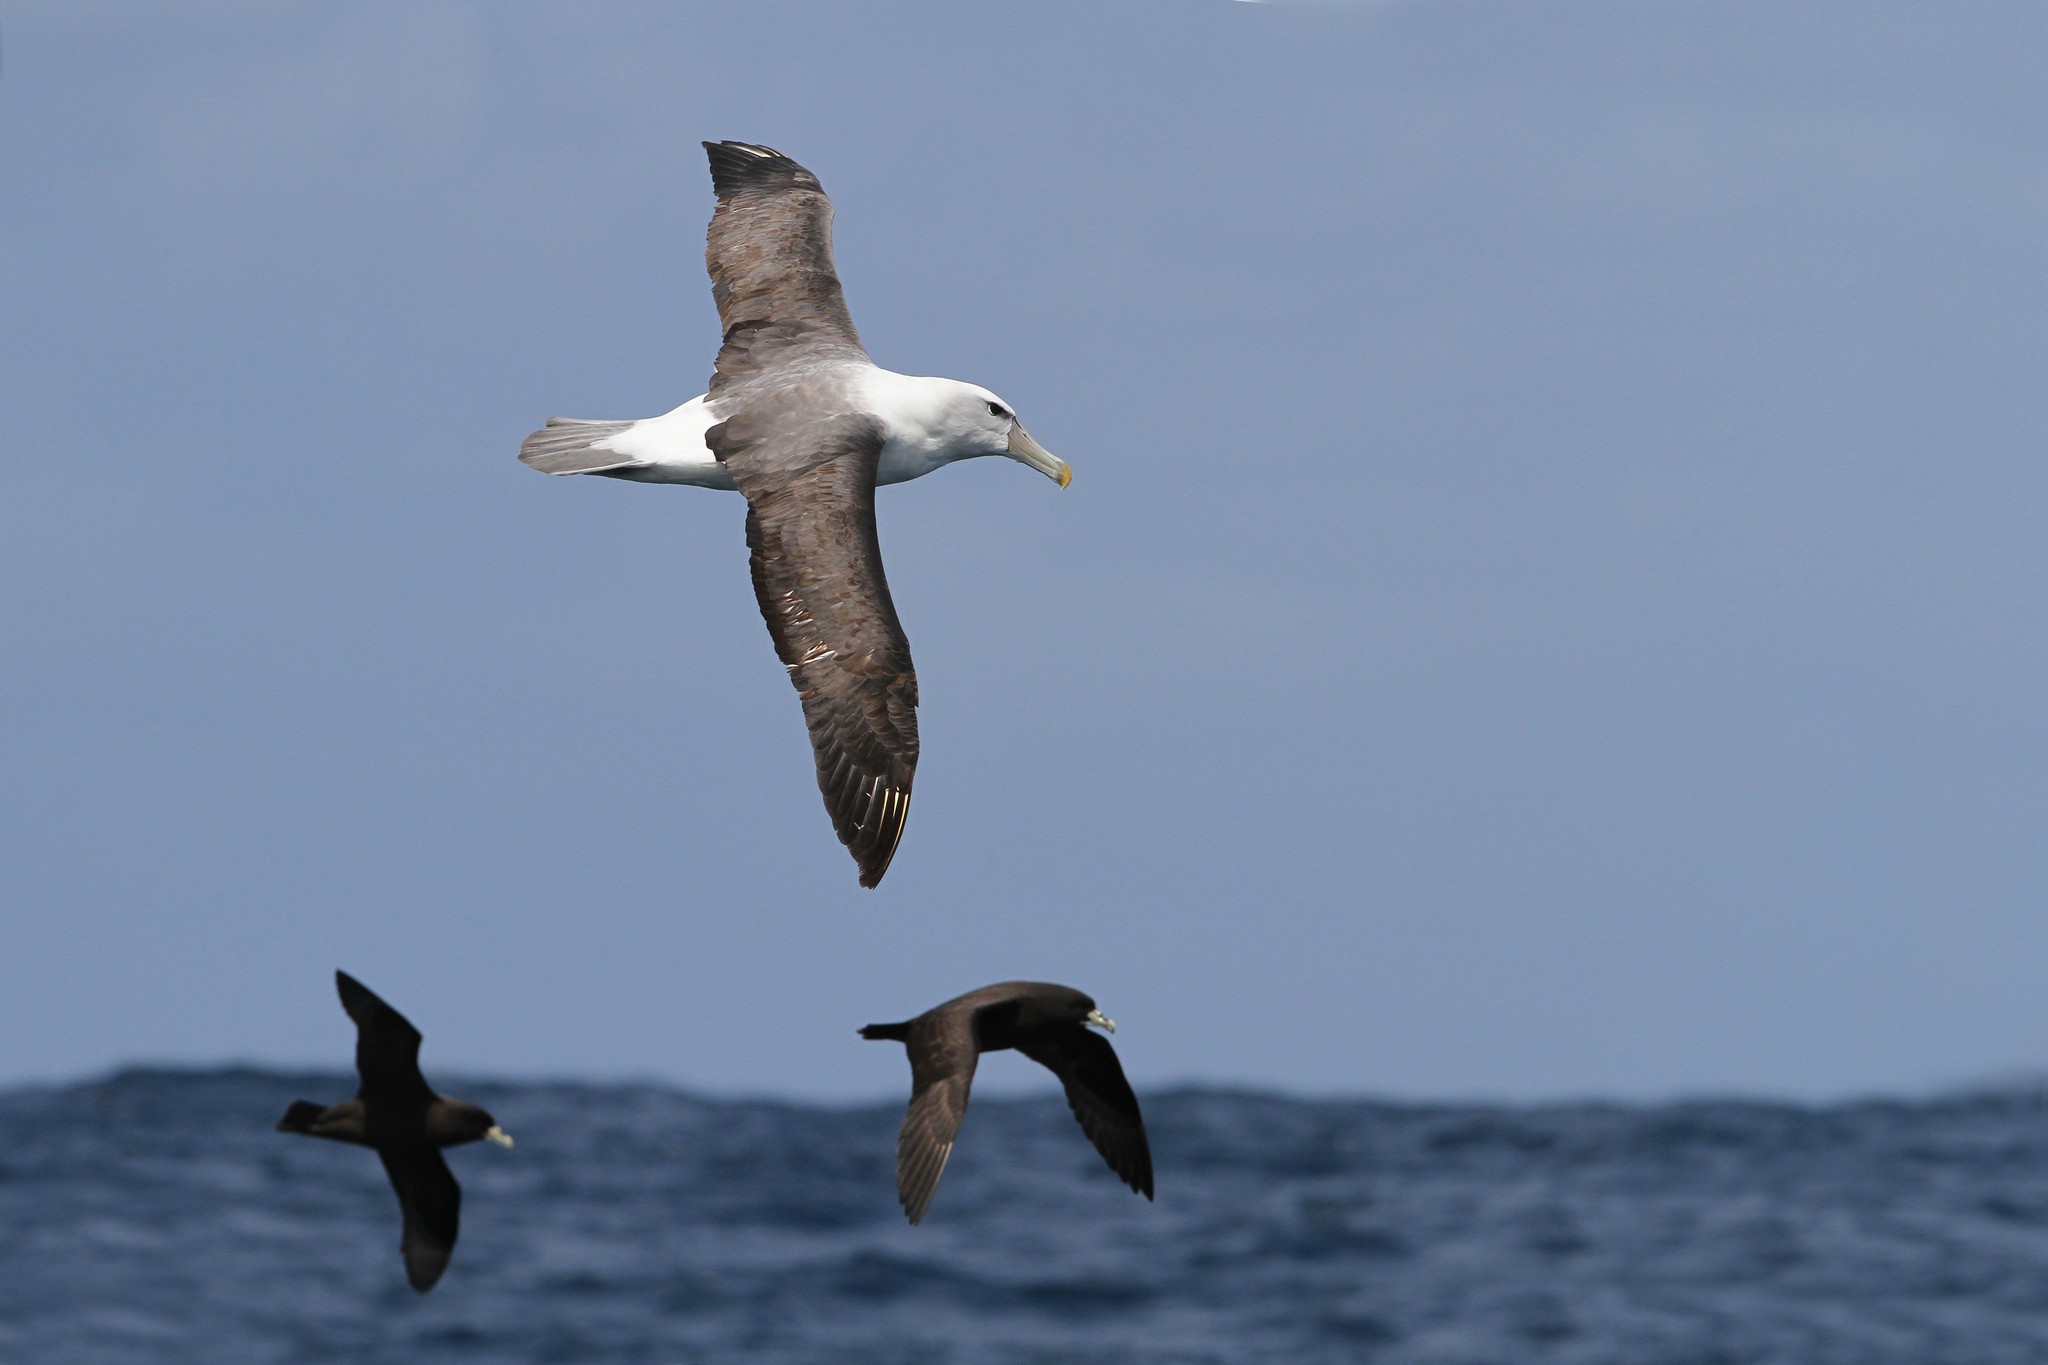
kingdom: Animalia
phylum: Chordata
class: Aves
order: Procellariiformes
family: Diomedeidae
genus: Thalassarche
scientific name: Thalassarche cauta
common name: Shy albatross
